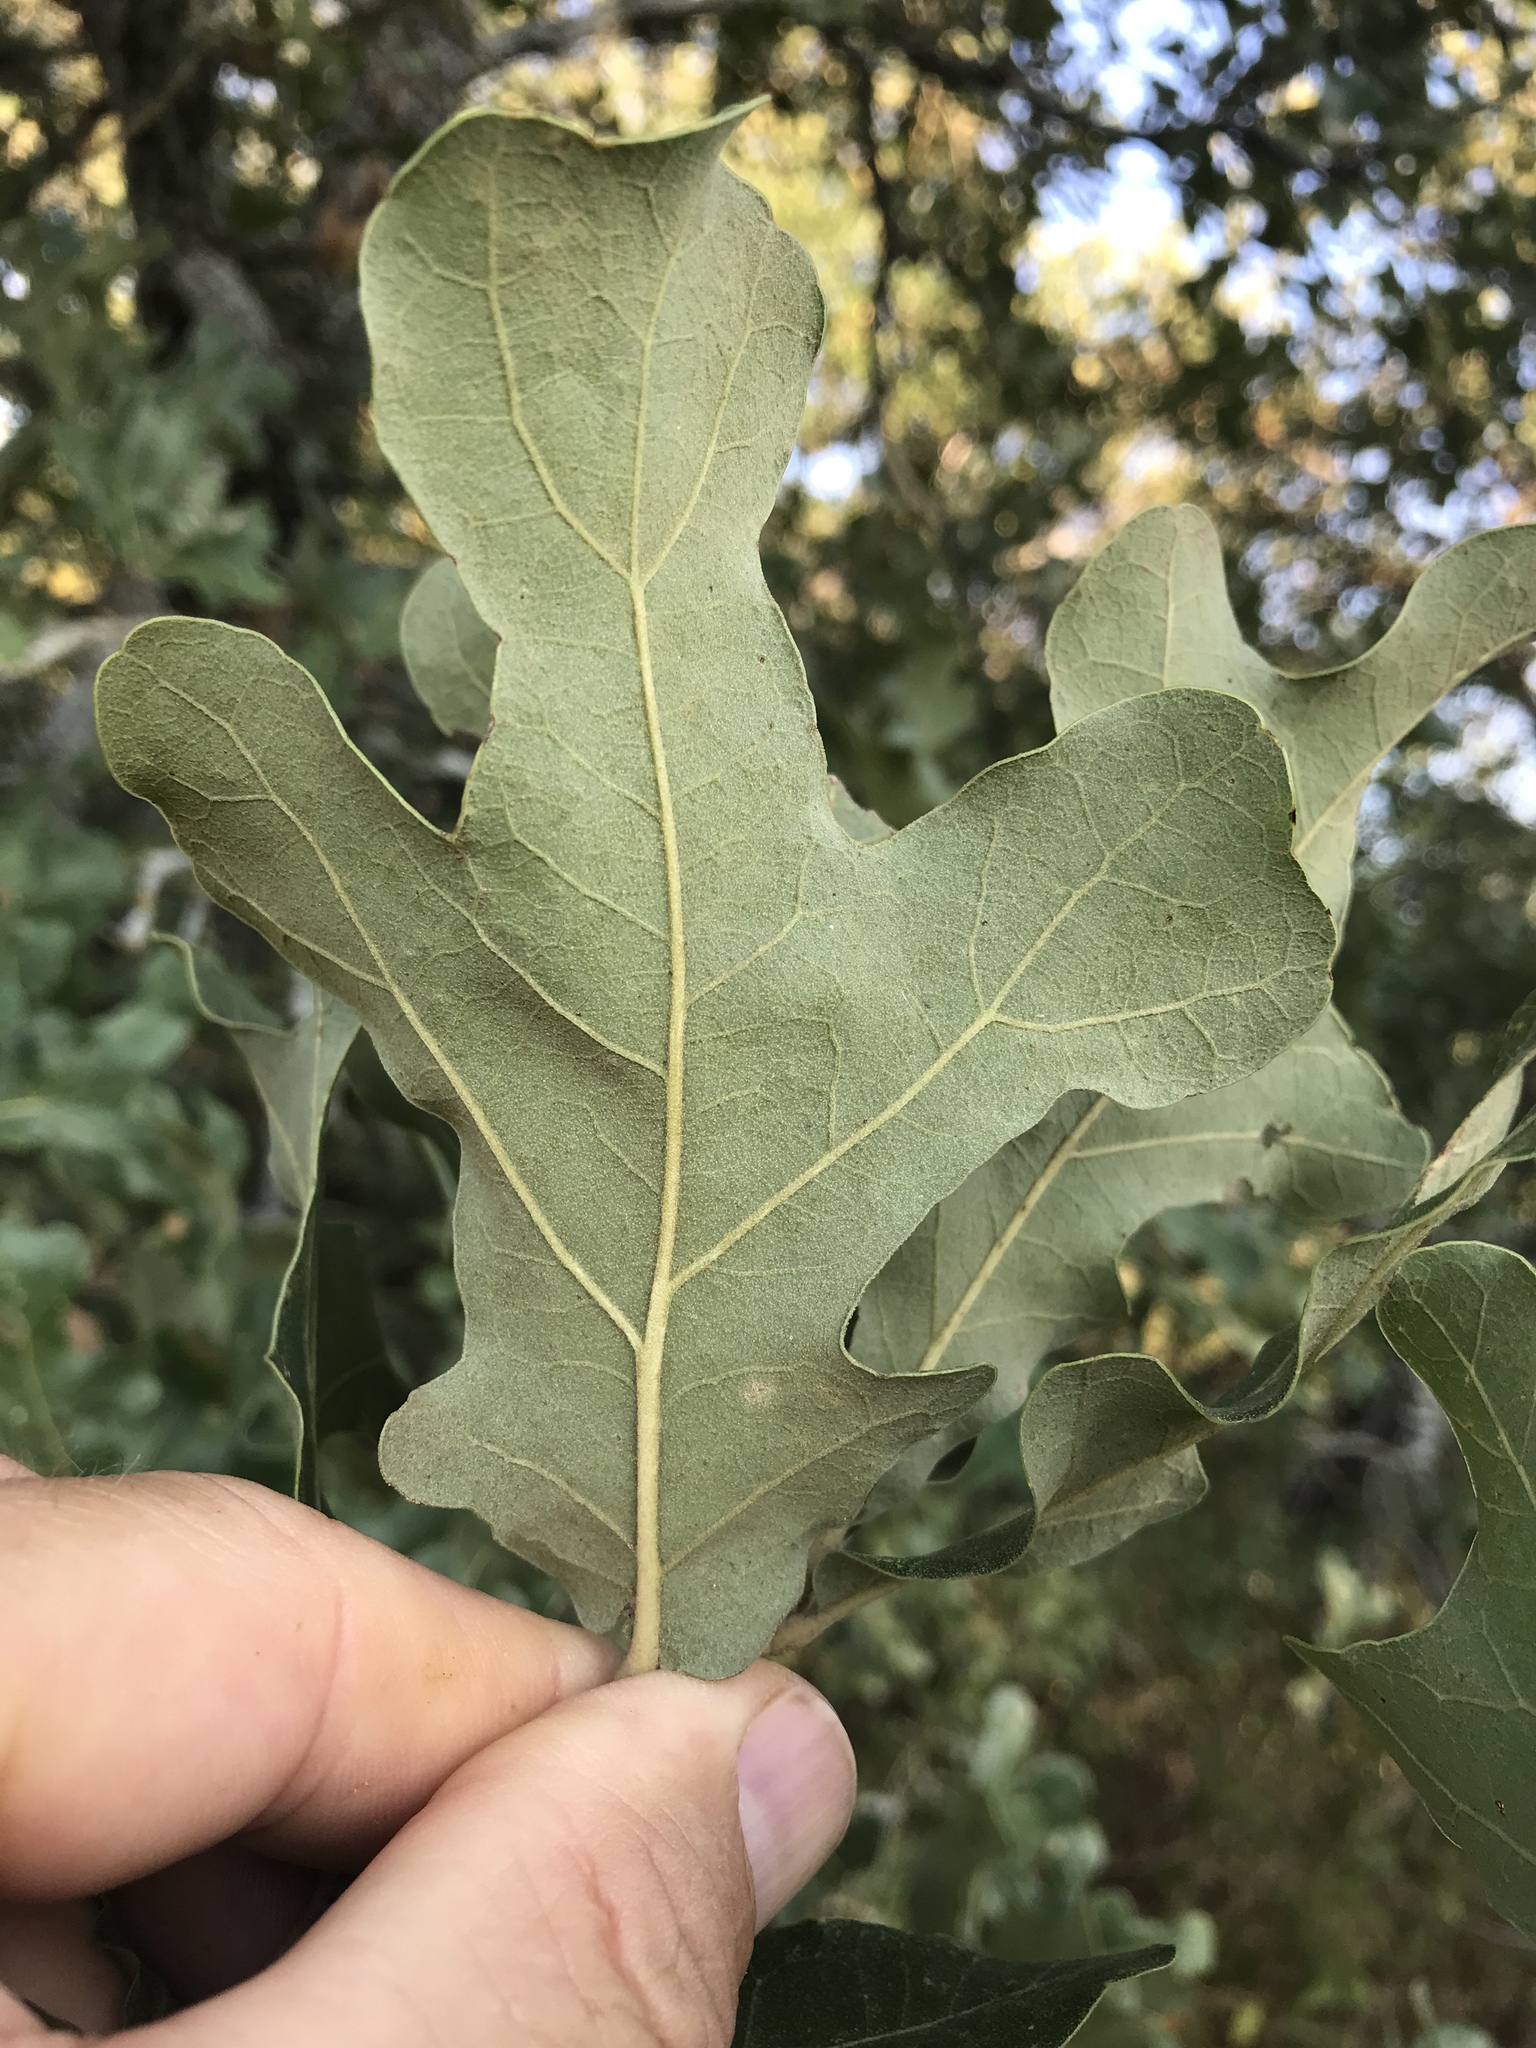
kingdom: Plantae
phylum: Tracheophyta
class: Magnoliopsida
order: Fagales
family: Fagaceae
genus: Quercus
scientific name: Quercus stellata
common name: Post oak
